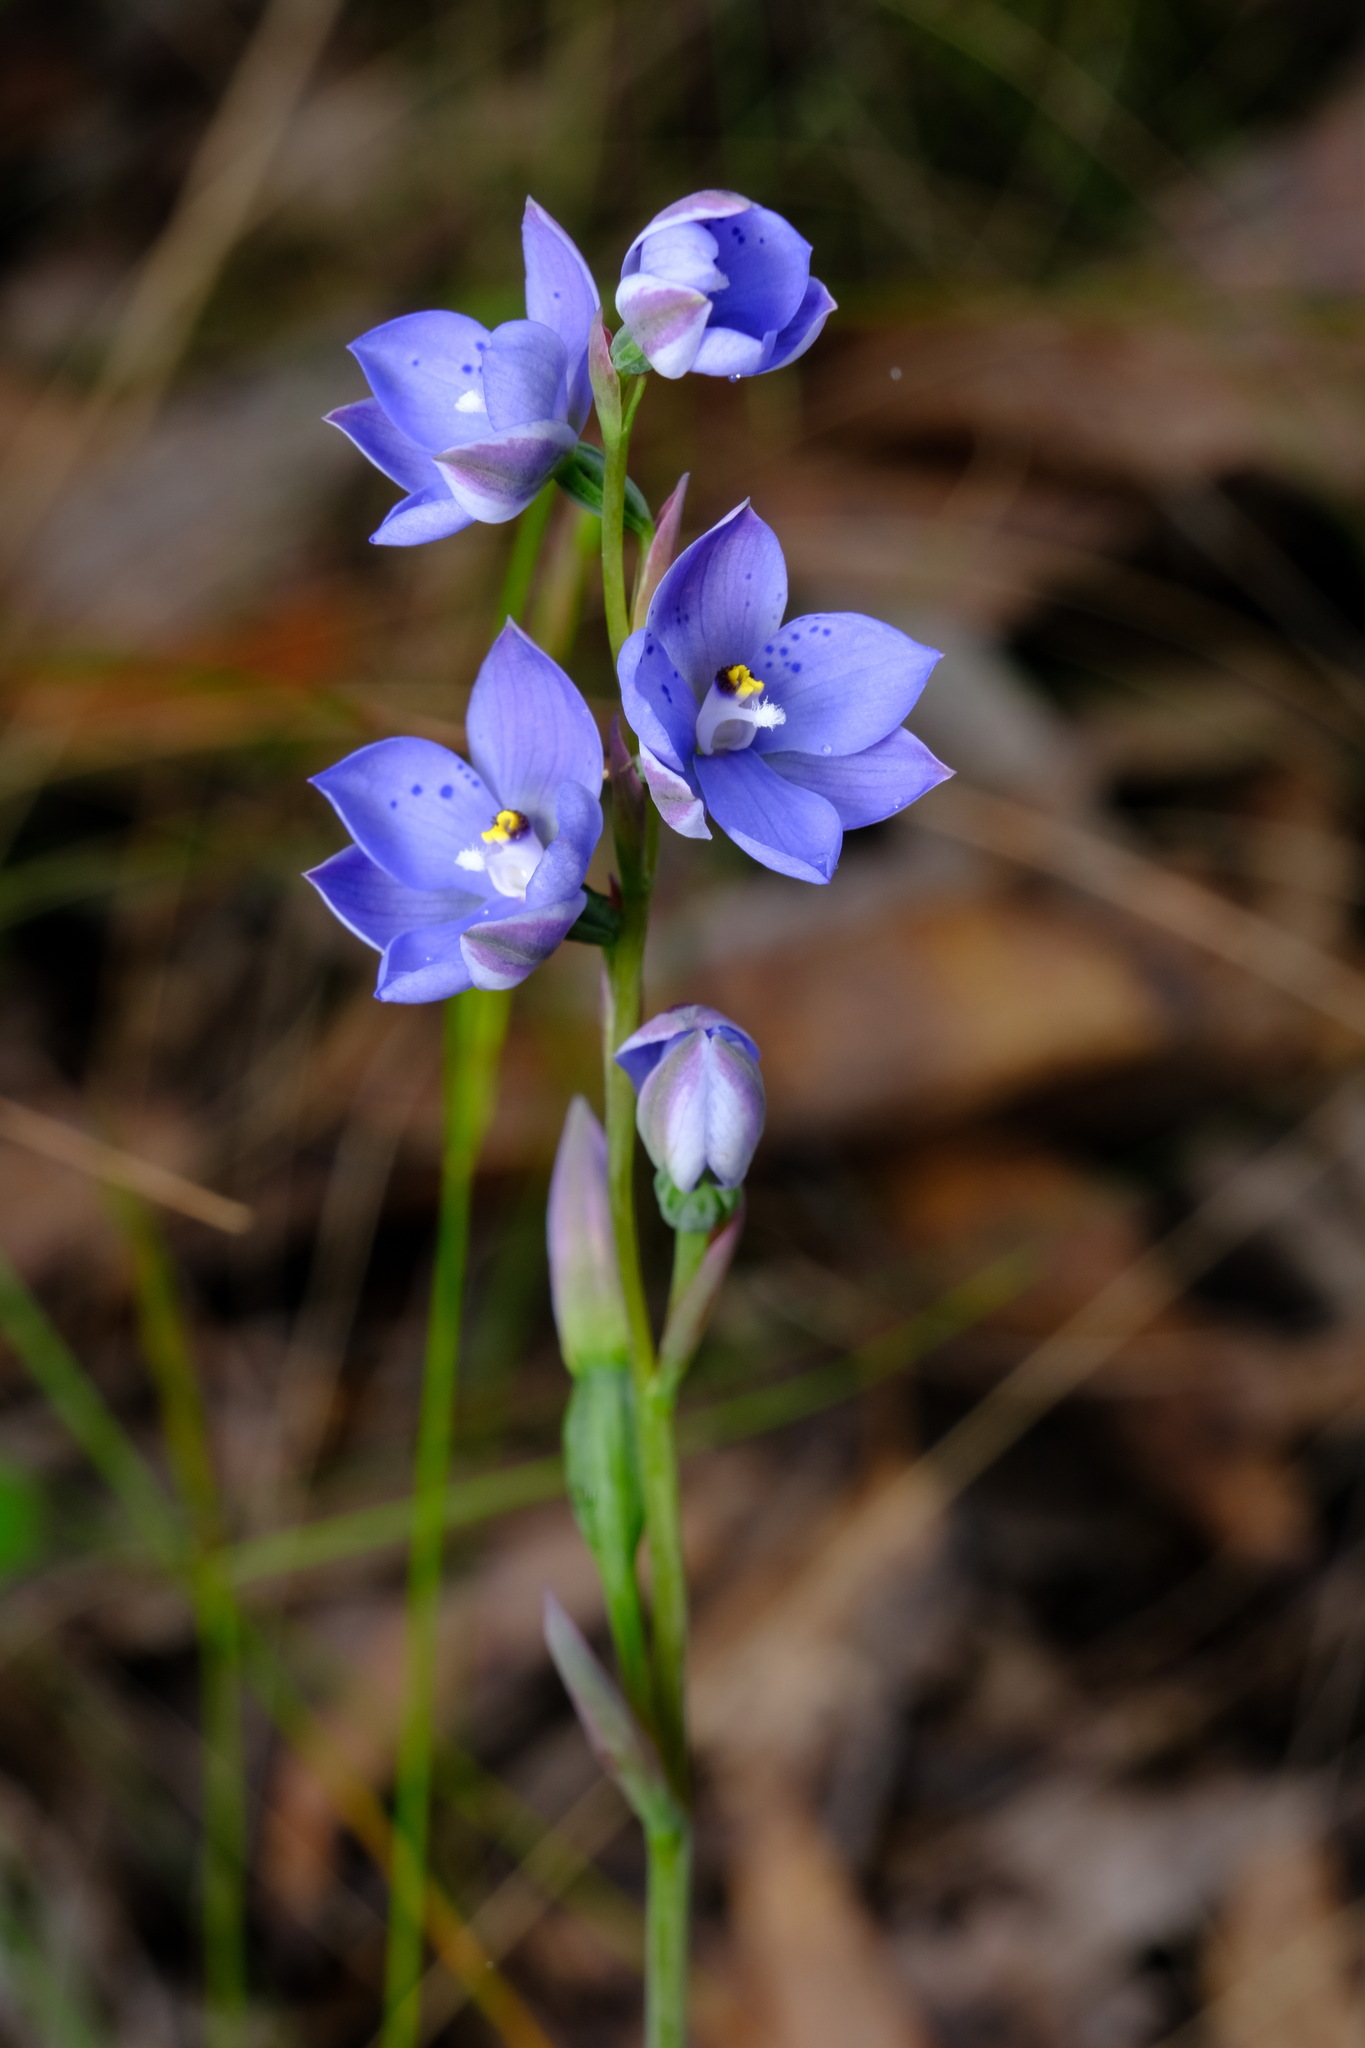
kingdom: Plantae
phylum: Tracheophyta
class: Liliopsida
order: Asparagales
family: Orchidaceae
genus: Thelymitra
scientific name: Thelymitra ixioides
